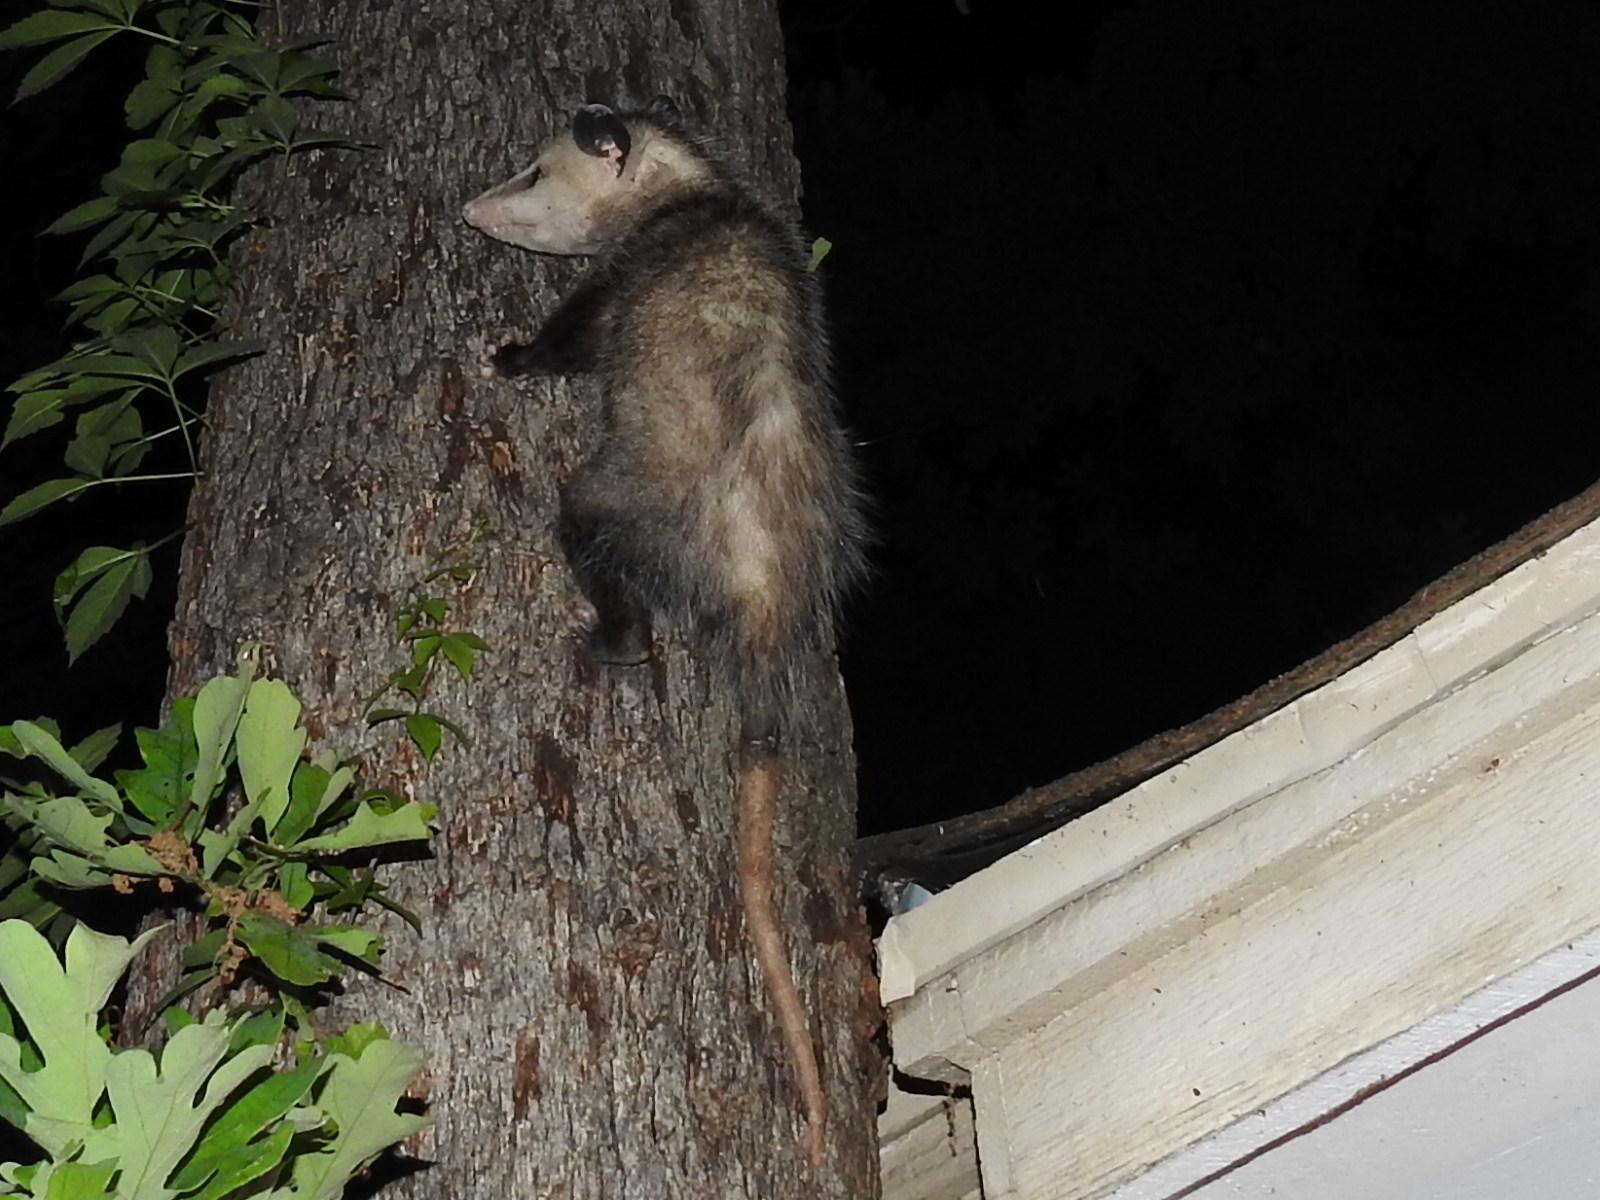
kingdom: Animalia
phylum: Chordata
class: Mammalia
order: Didelphimorphia
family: Didelphidae
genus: Didelphis
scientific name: Didelphis virginiana
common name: Virginia opossum
